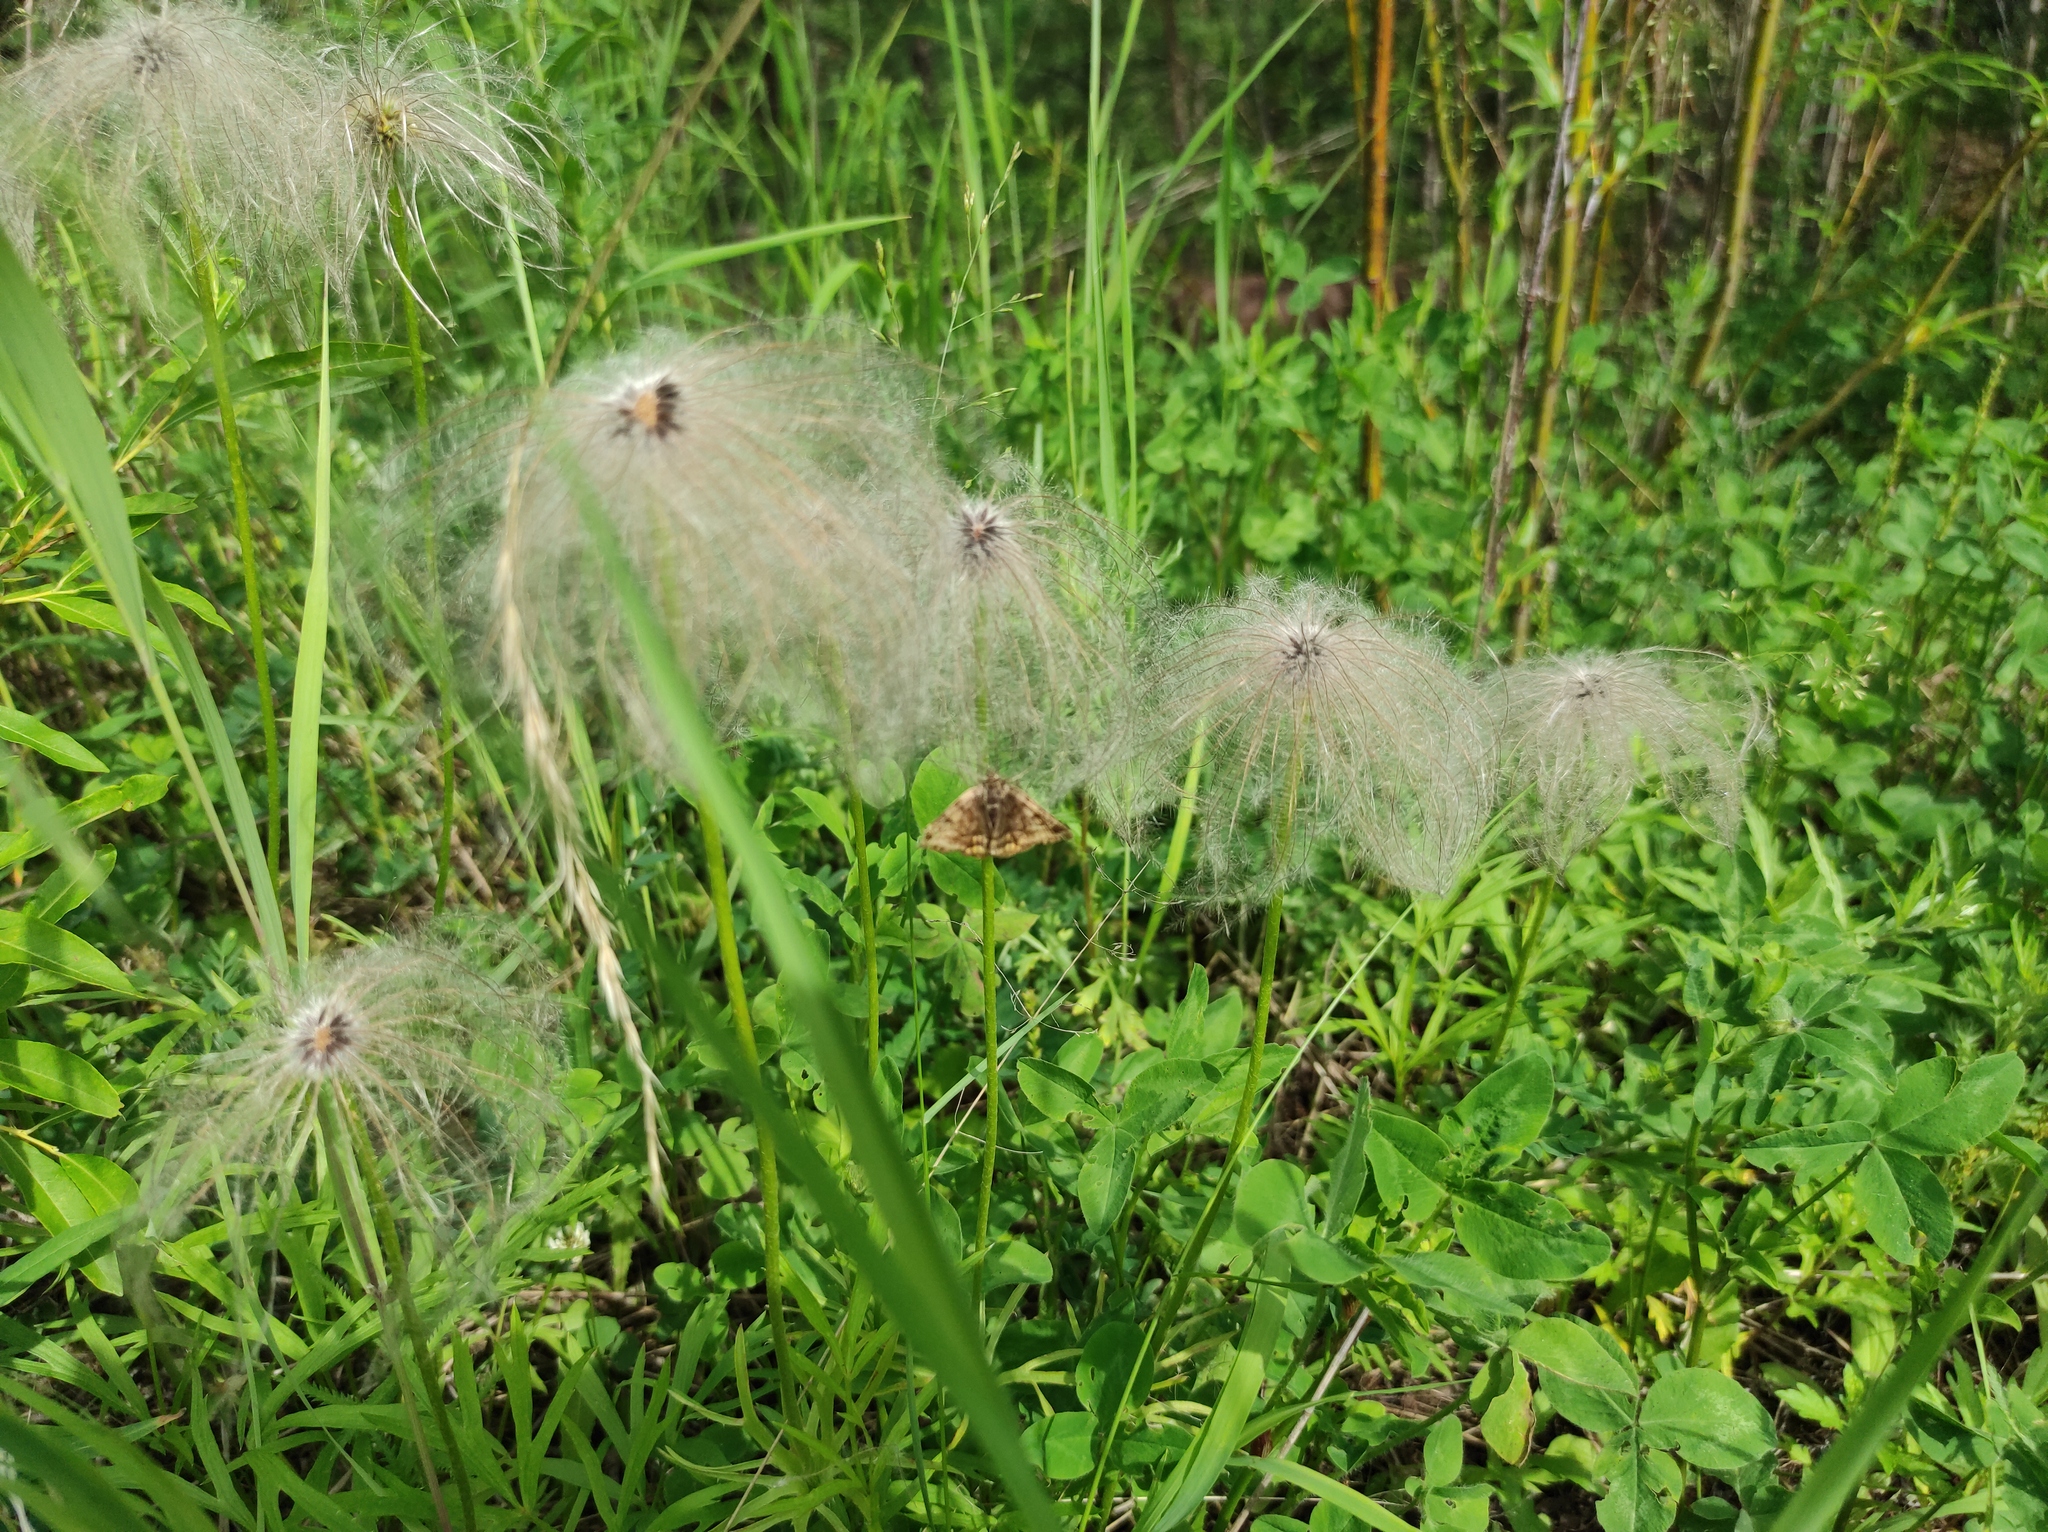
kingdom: Plantae
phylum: Tracheophyta
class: Magnoliopsida
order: Ranunculales
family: Ranunculaceae
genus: Pulsatilla
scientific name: Pulsatilla dahurica
